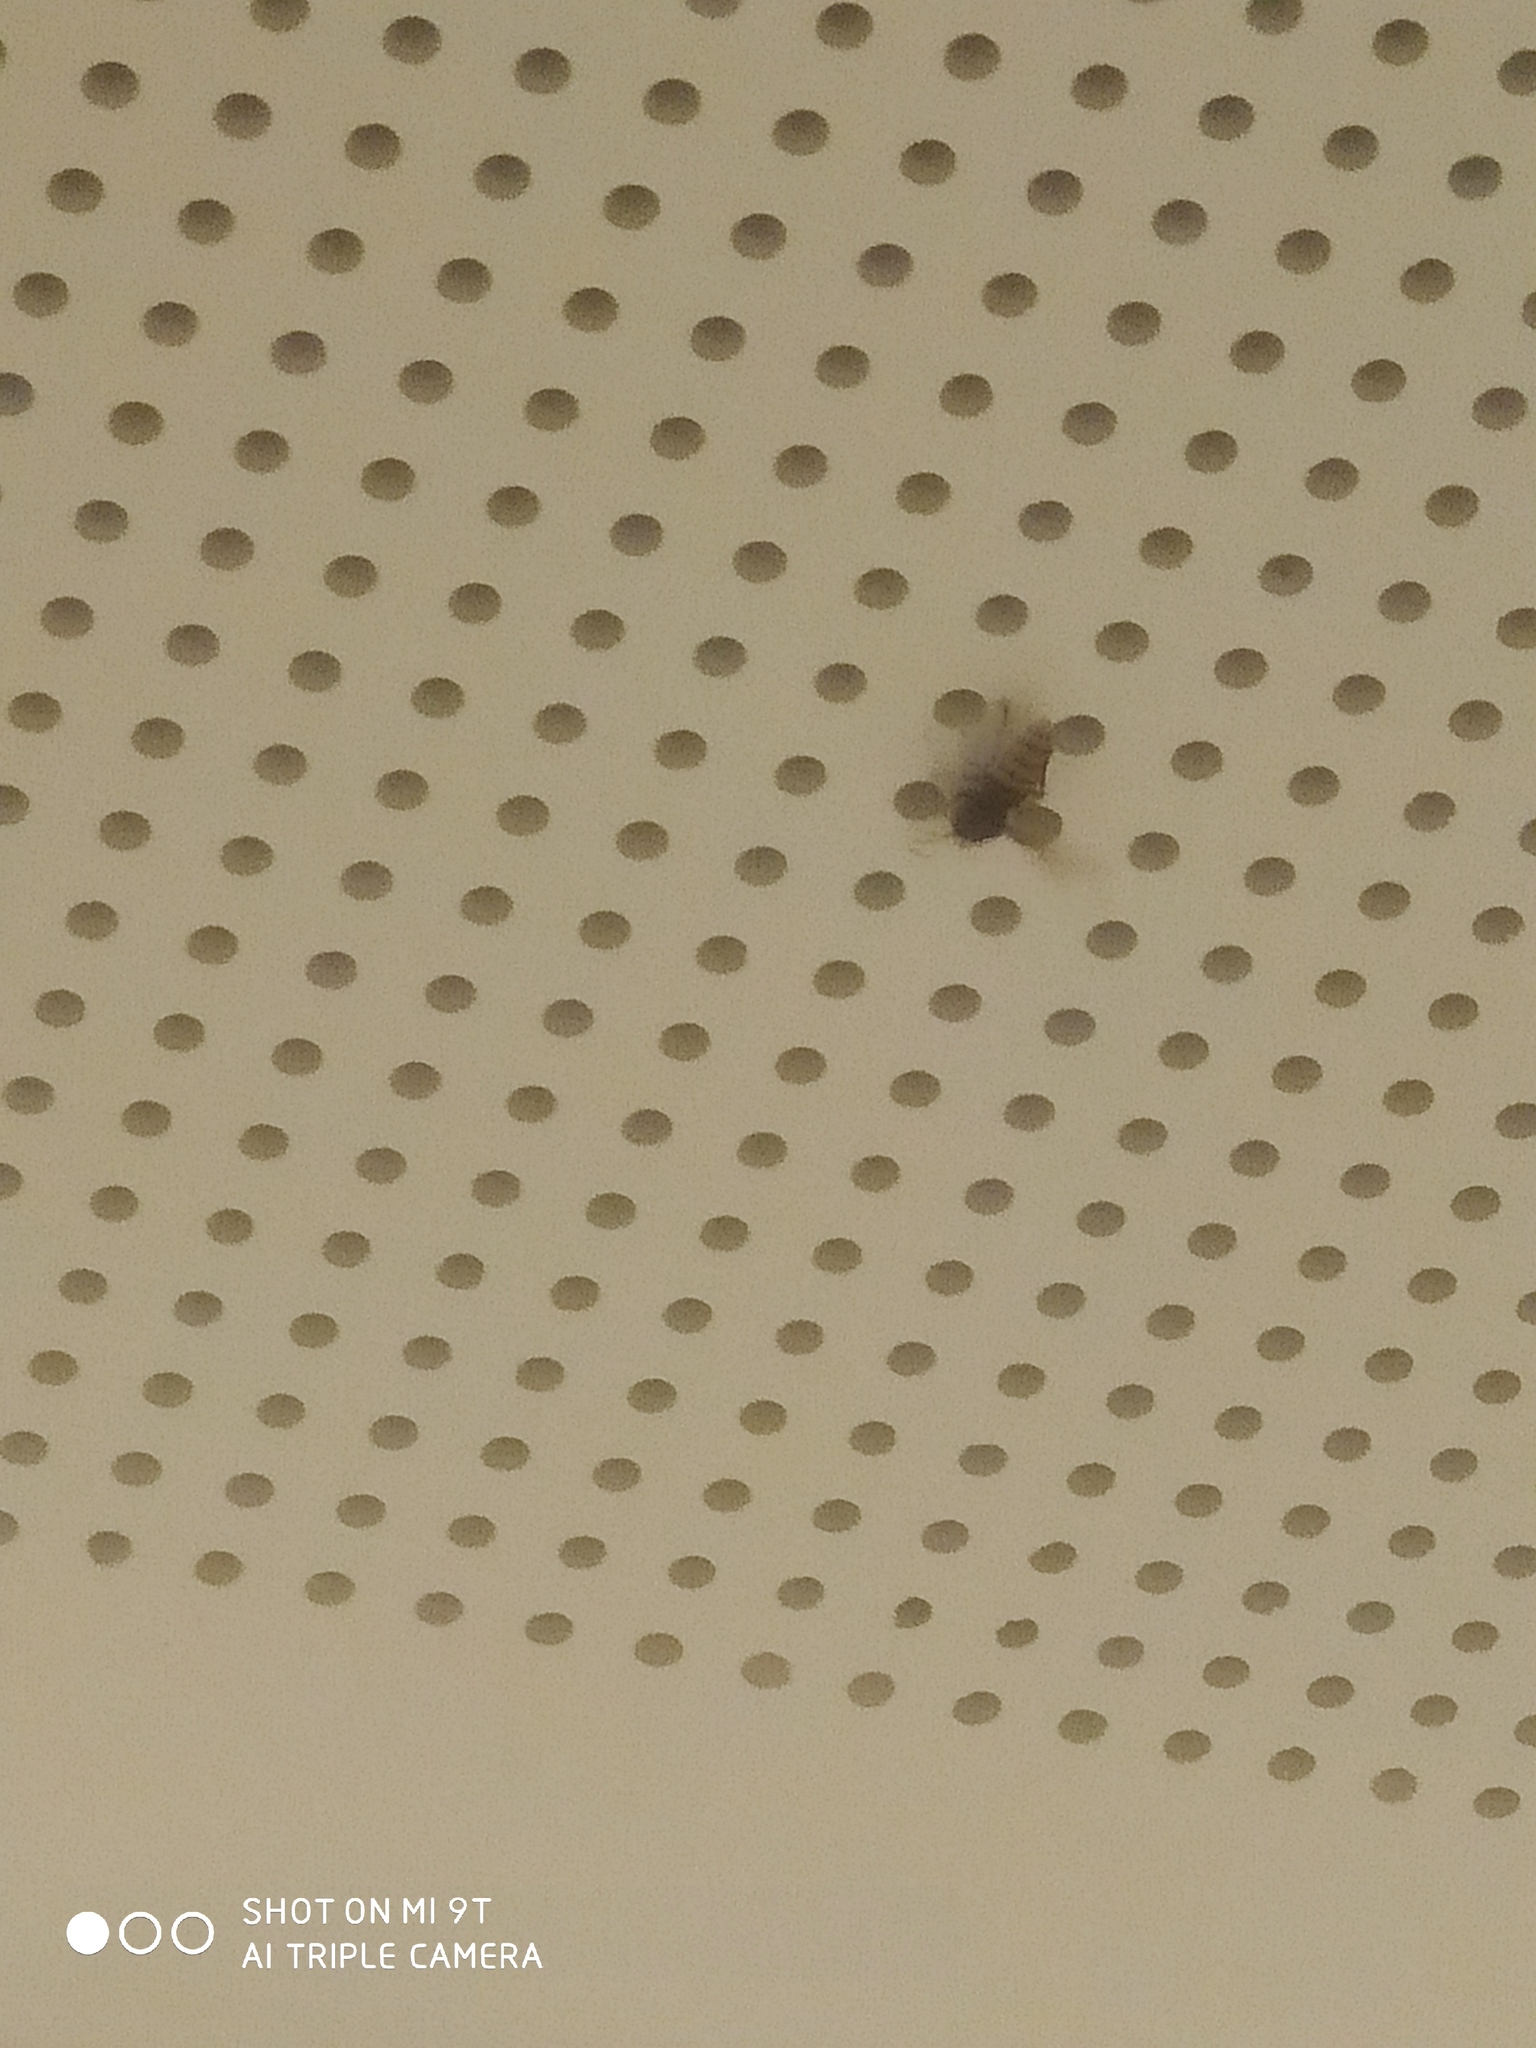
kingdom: Animalia
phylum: Arthropoda
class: Insecta
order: Hymenoptera
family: Vespidae
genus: Vespa
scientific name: Vespa crabro
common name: Hornet
